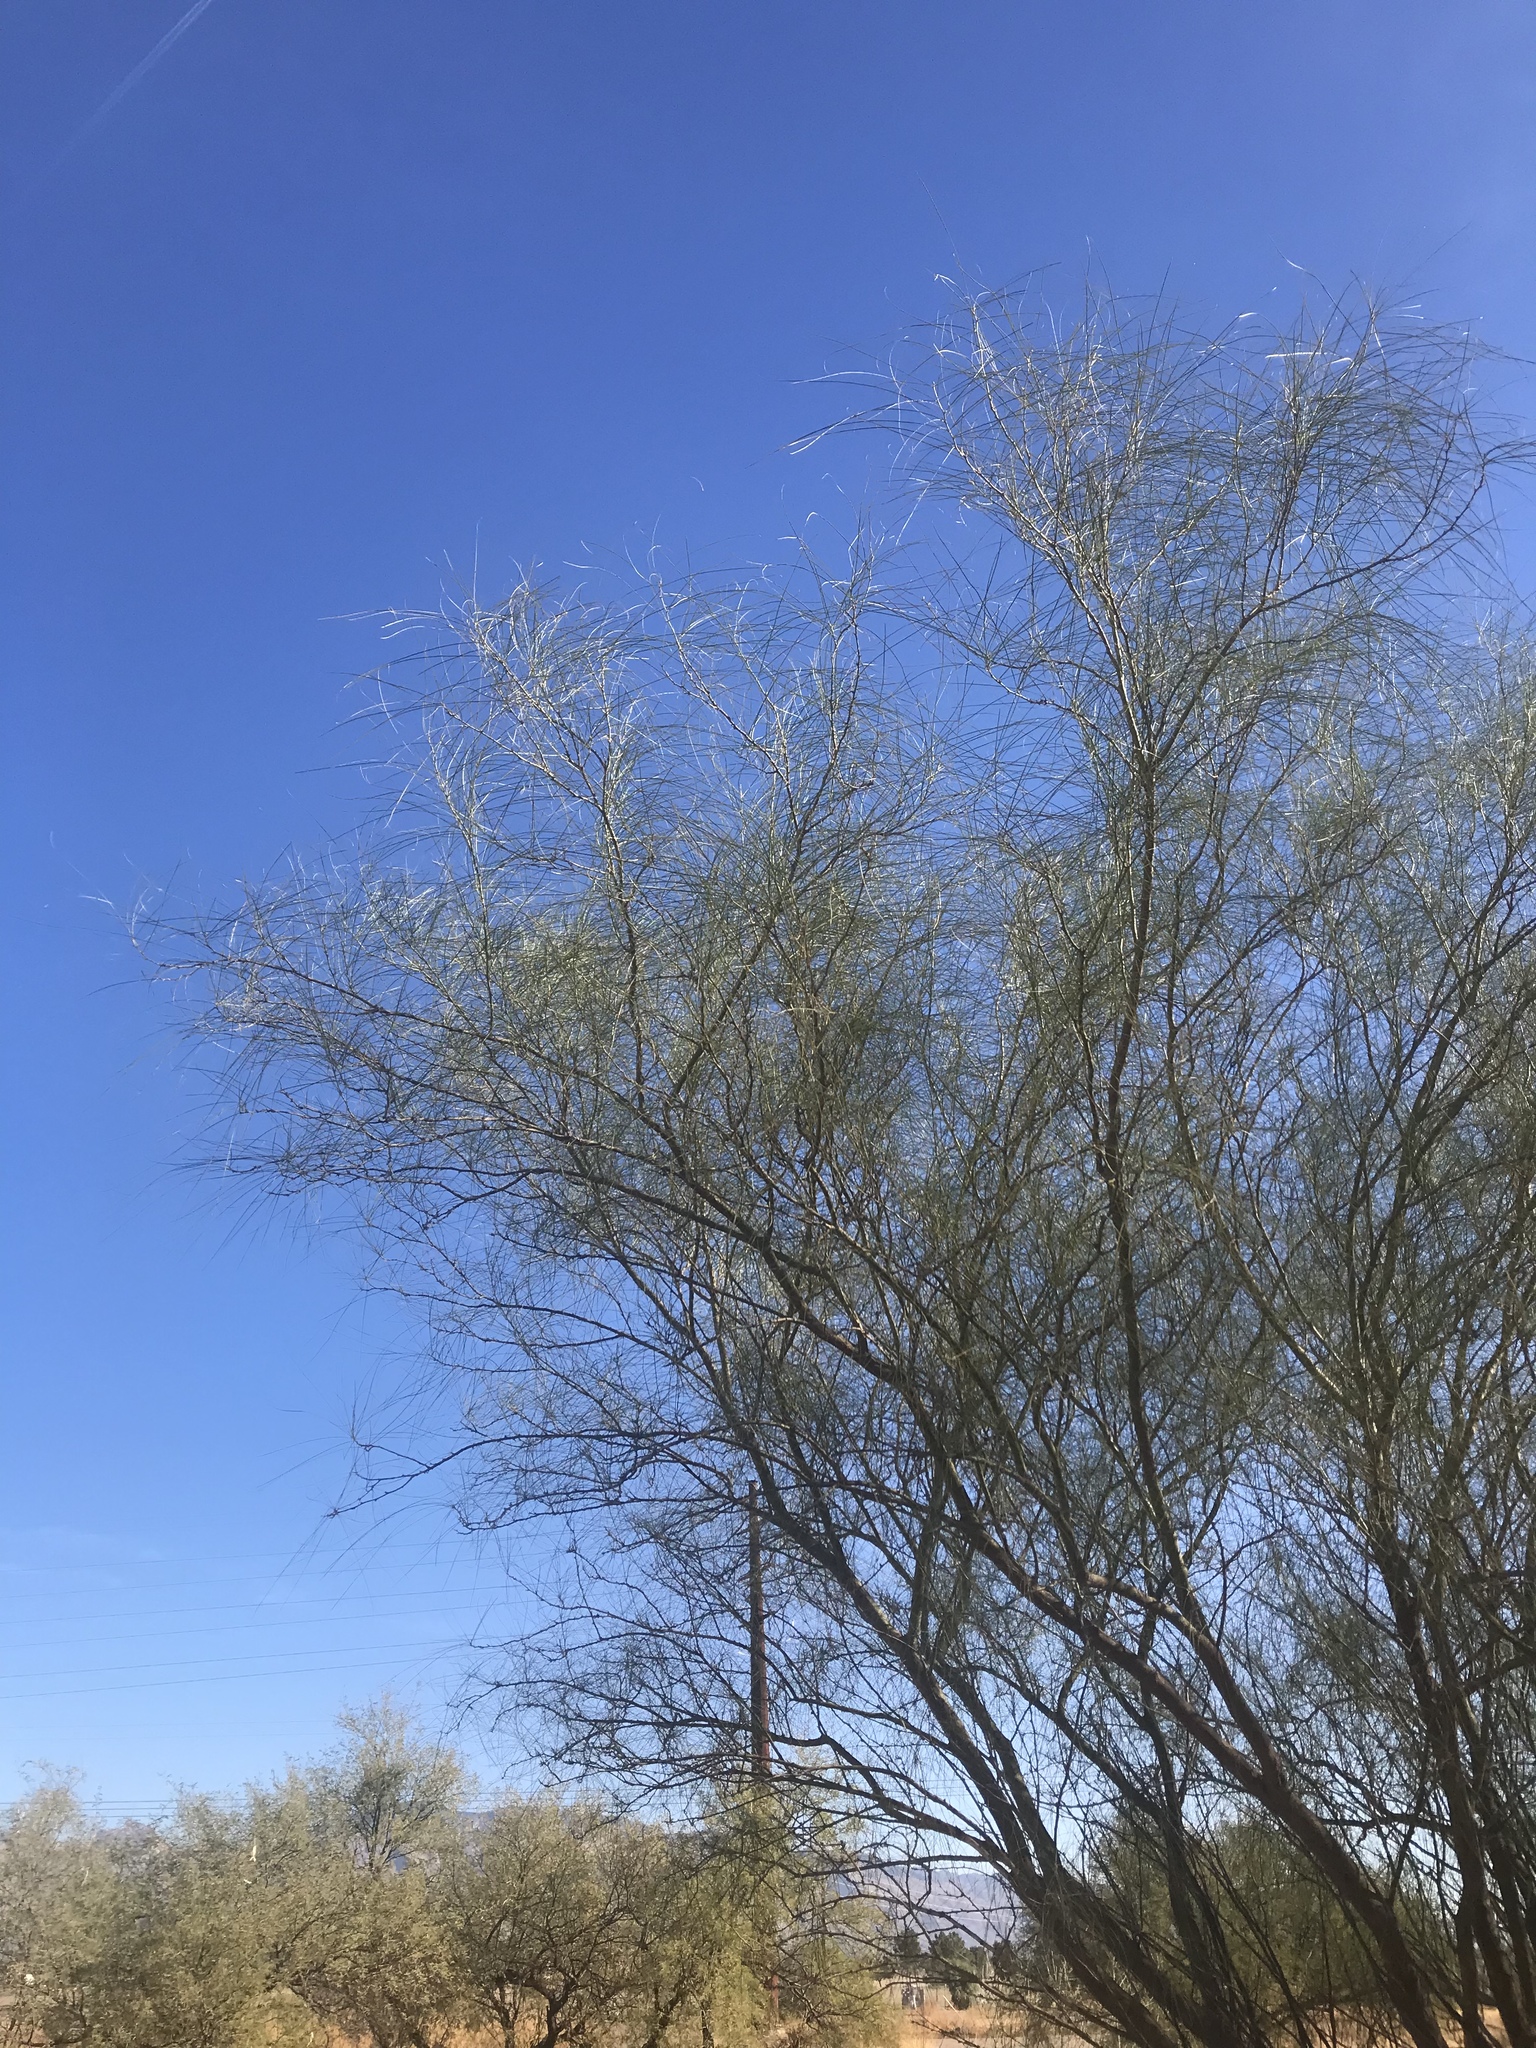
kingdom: Plantae
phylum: Tracheophyta
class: Magnoliopsida
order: Fabales
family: Fabaceae
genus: Parkinsonia
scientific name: Parkinsonia aculeata
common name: Jerusalem thorn
